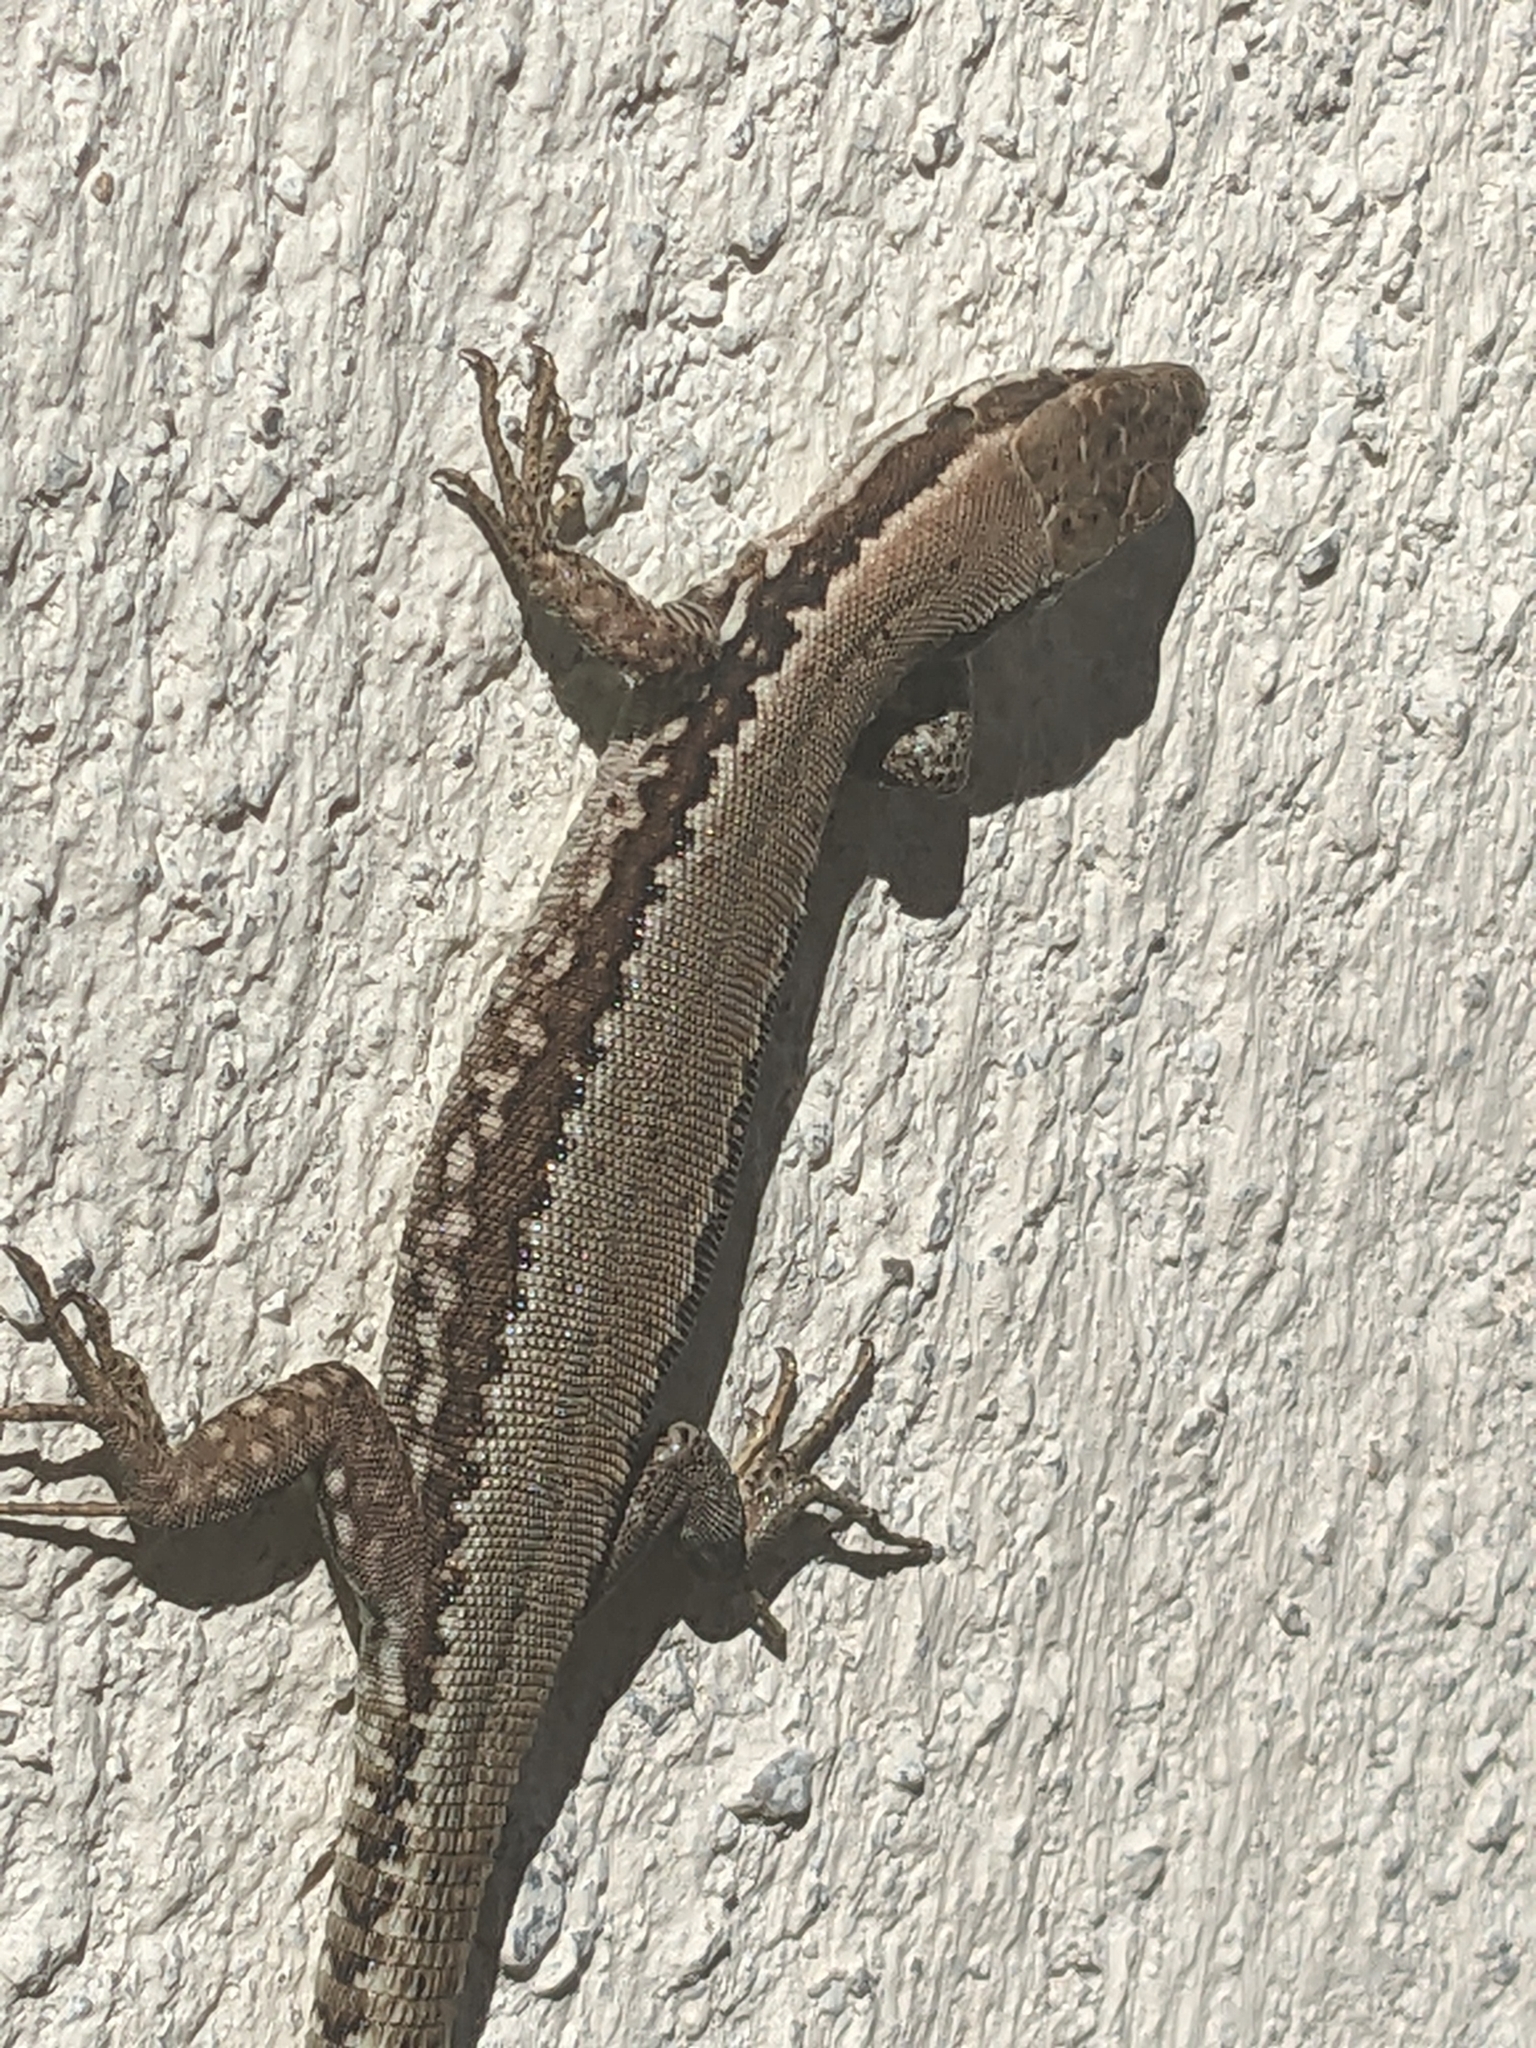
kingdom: Animalia
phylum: Chordata
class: Squamata
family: Lacertidae
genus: Podarcis
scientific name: Podarcis muralis
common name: Common wall lizard
